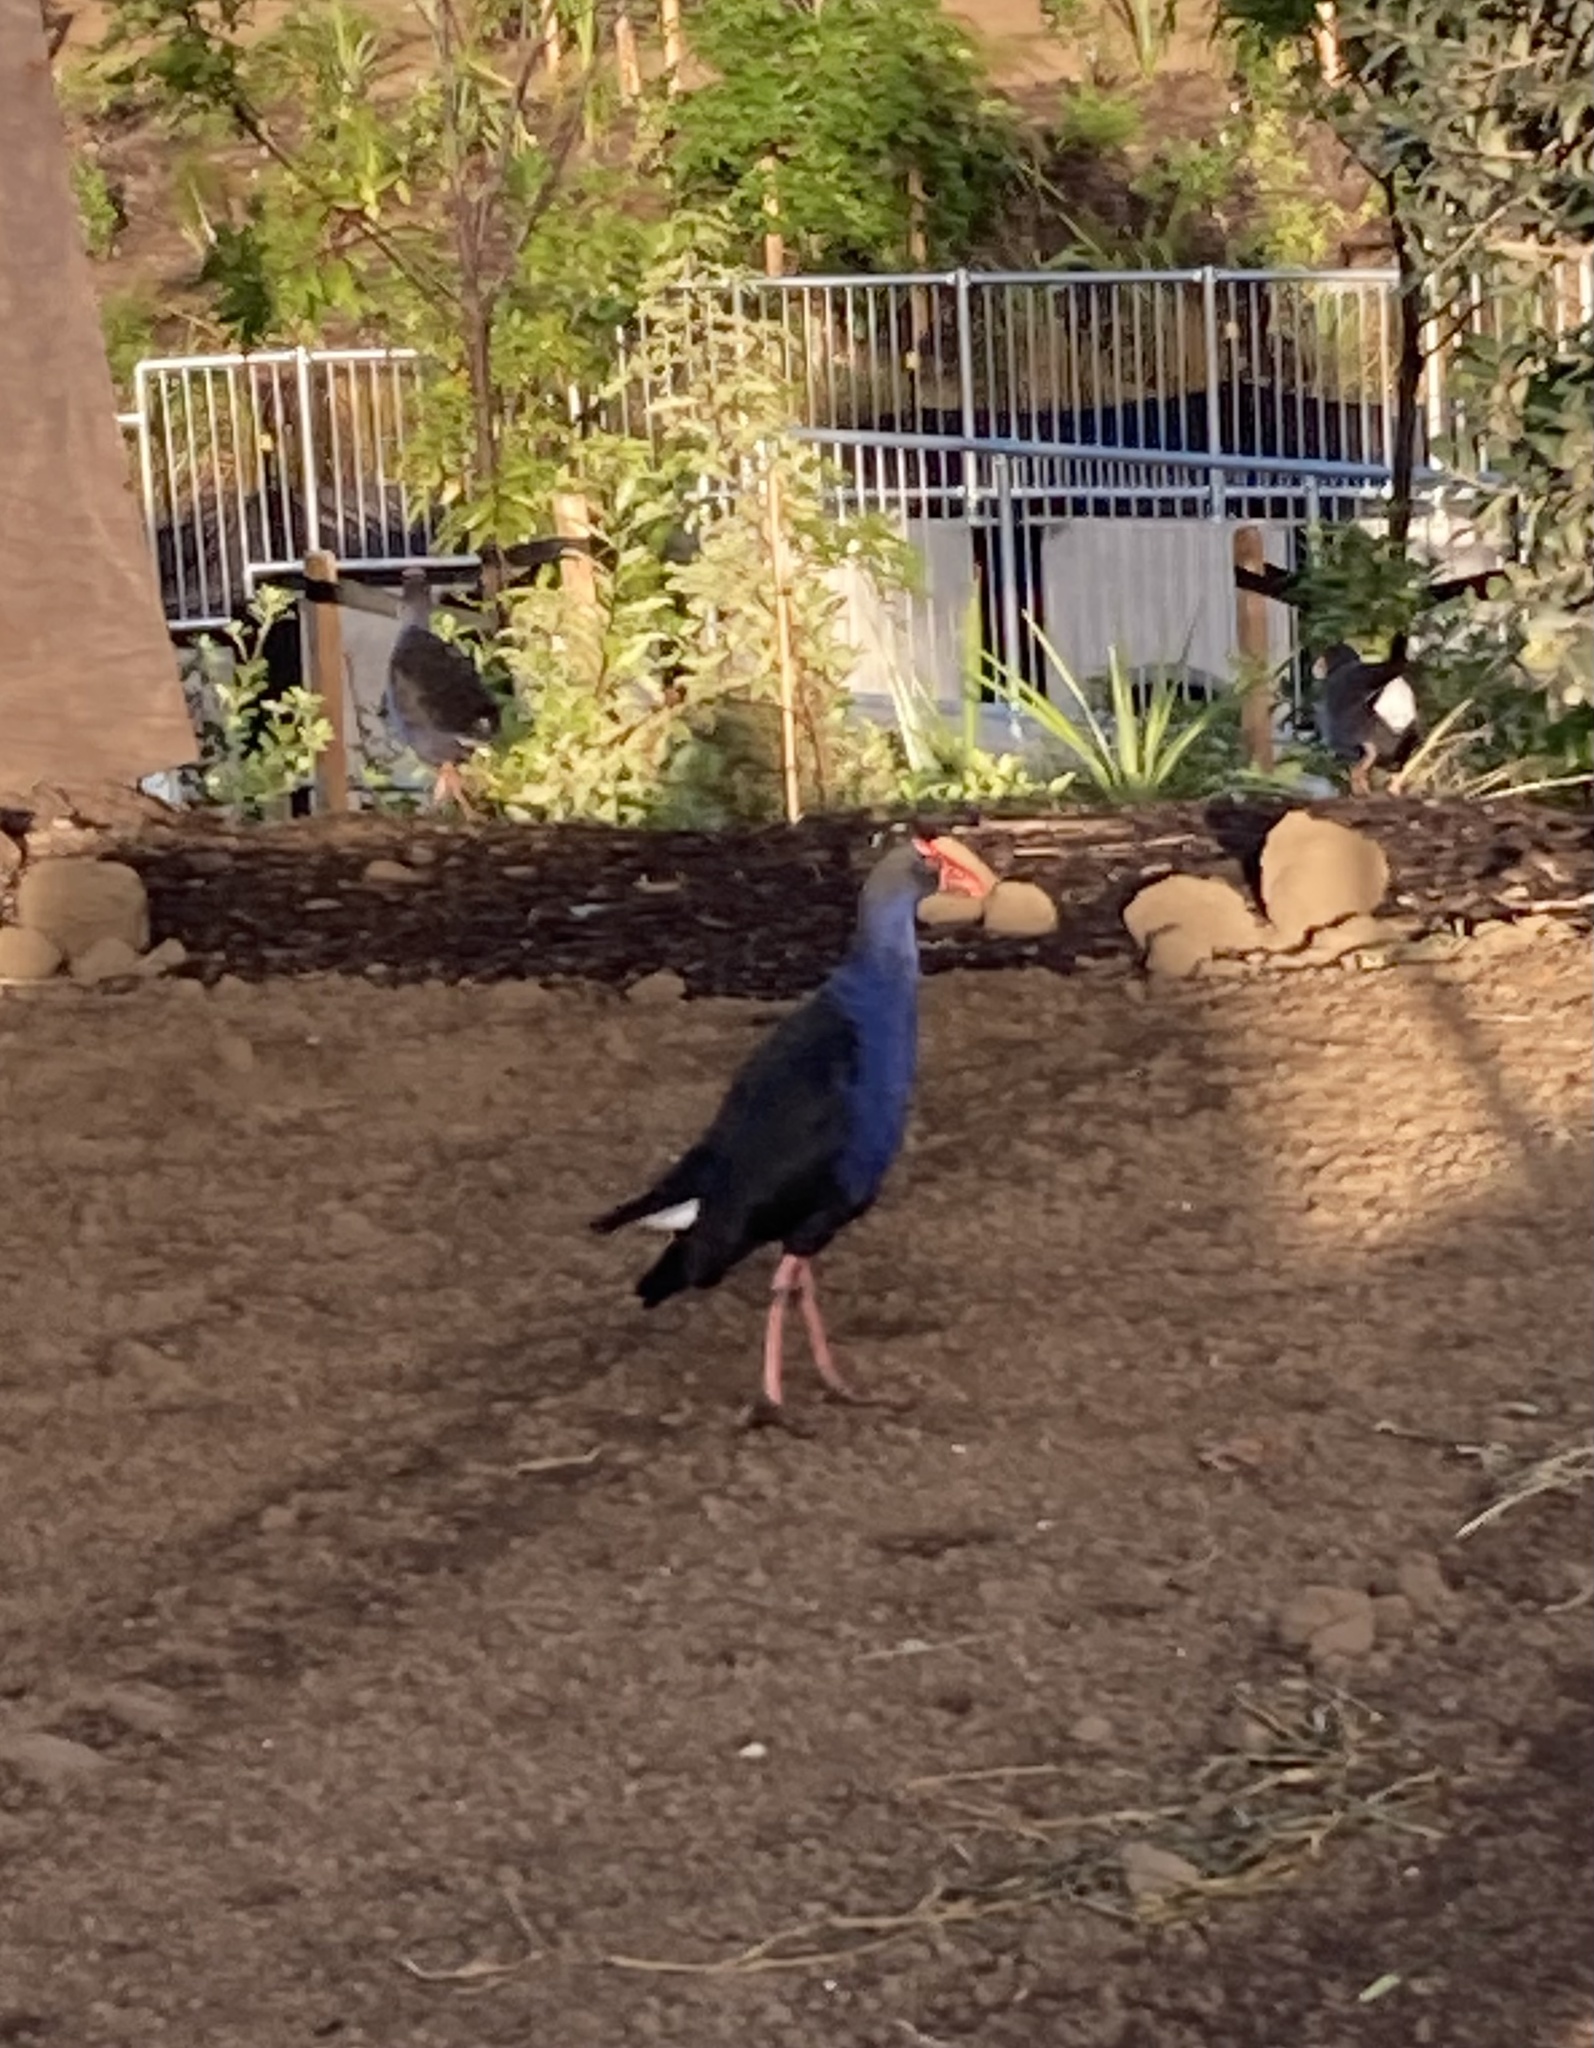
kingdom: Animalia
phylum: Chordata
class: Aves
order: Gruiformes
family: Rallidae
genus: Porphyrio
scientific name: Porphyrio melanotus
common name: Australasian swamphen
